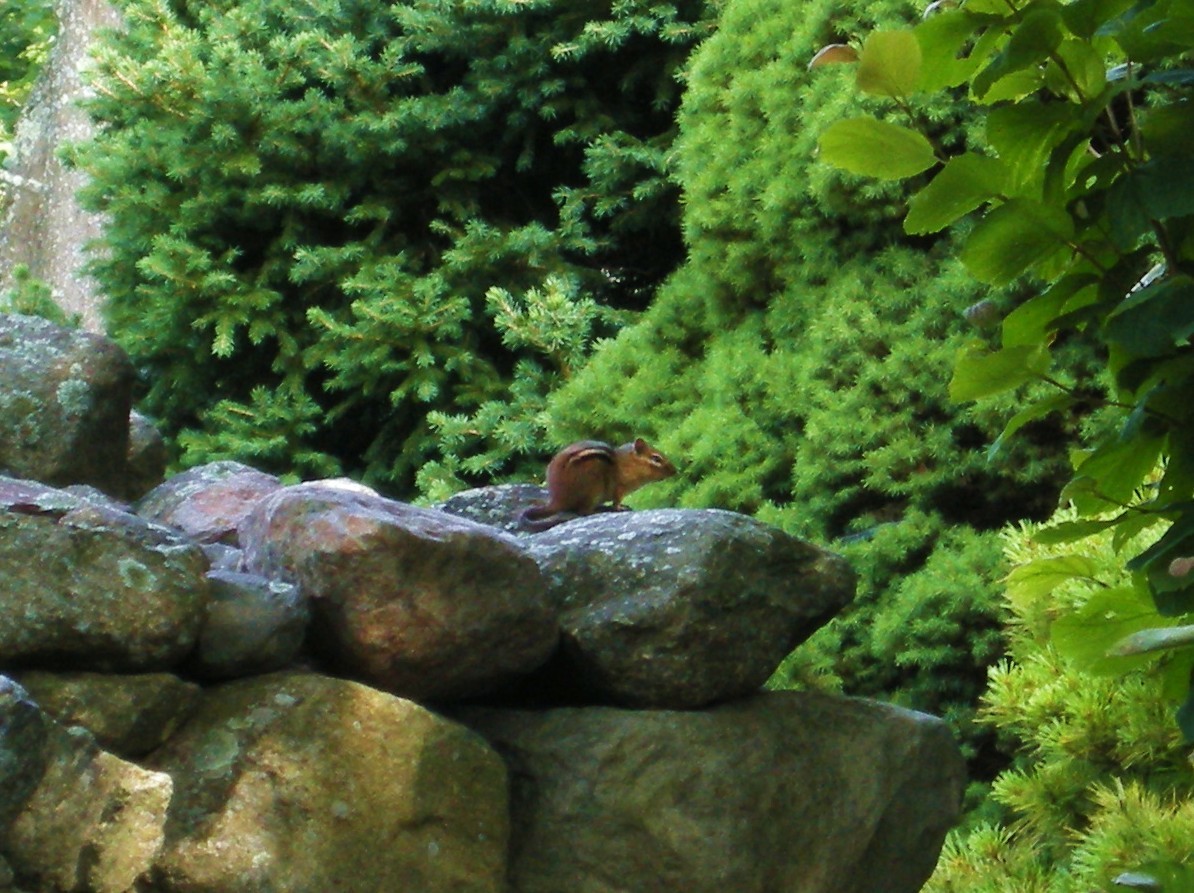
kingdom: Animalia
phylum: Chordata
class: Mammalia
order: Rodentia
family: Sciuridae
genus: Tamias
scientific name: Tamias striatus
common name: Eastern chipmunk
